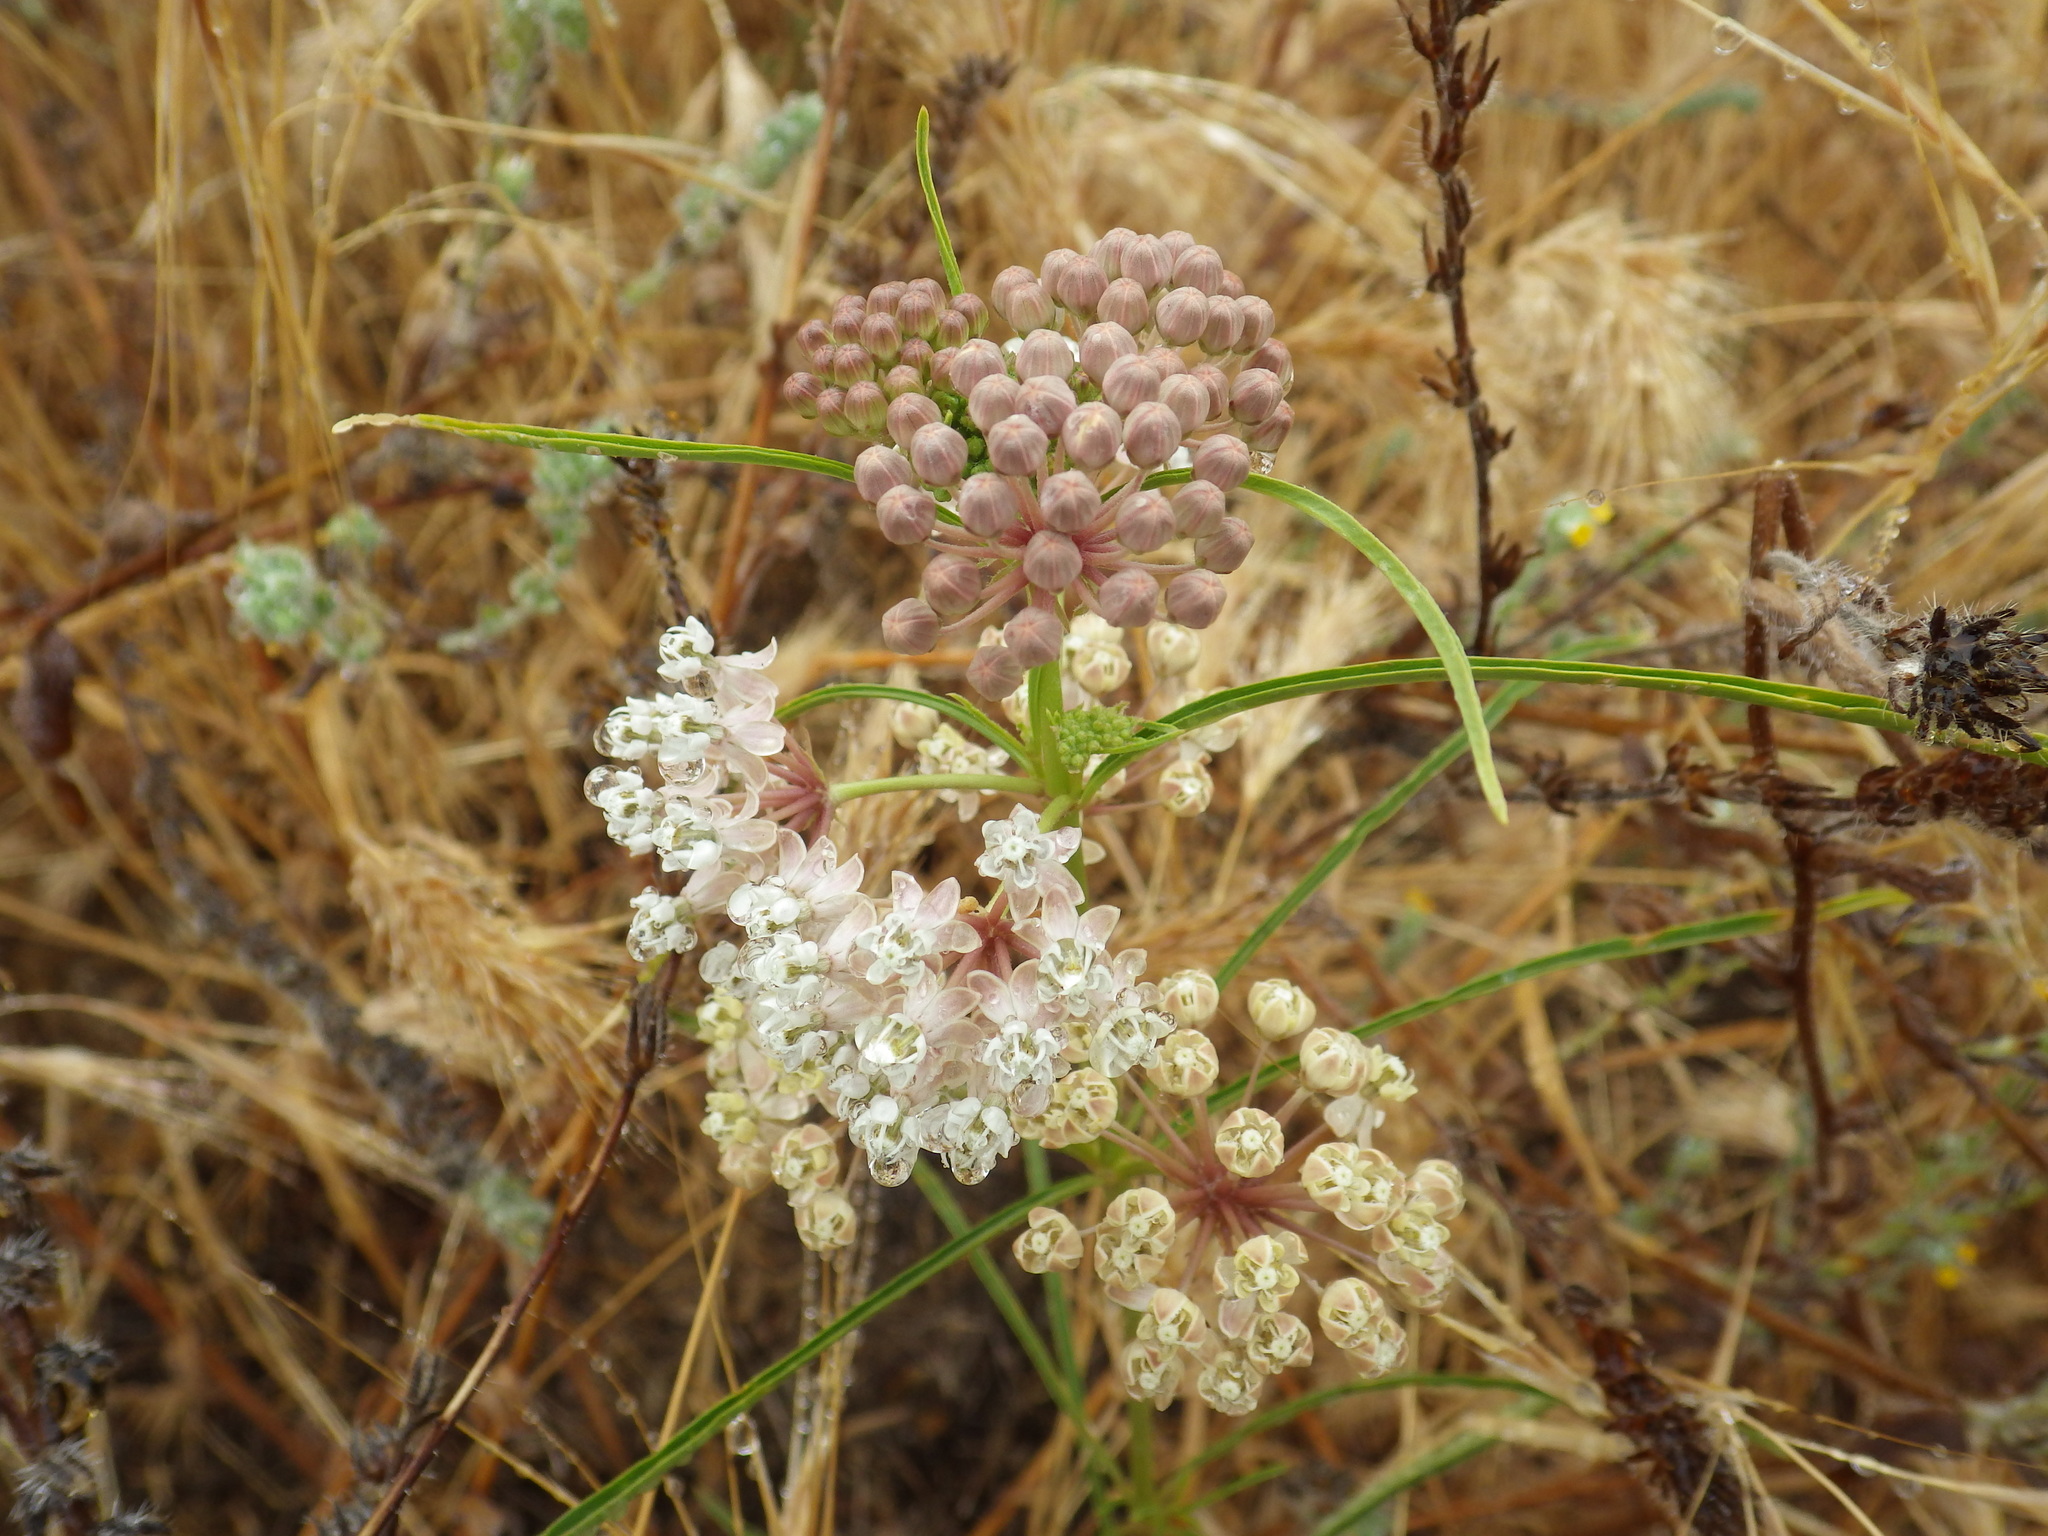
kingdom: Plantae
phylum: Tracheophyta
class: Magnoliopsida
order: Gentianales
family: Apocynaceae
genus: Asclepias
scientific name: Asclepias fascicularis
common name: Mexican milkweed
